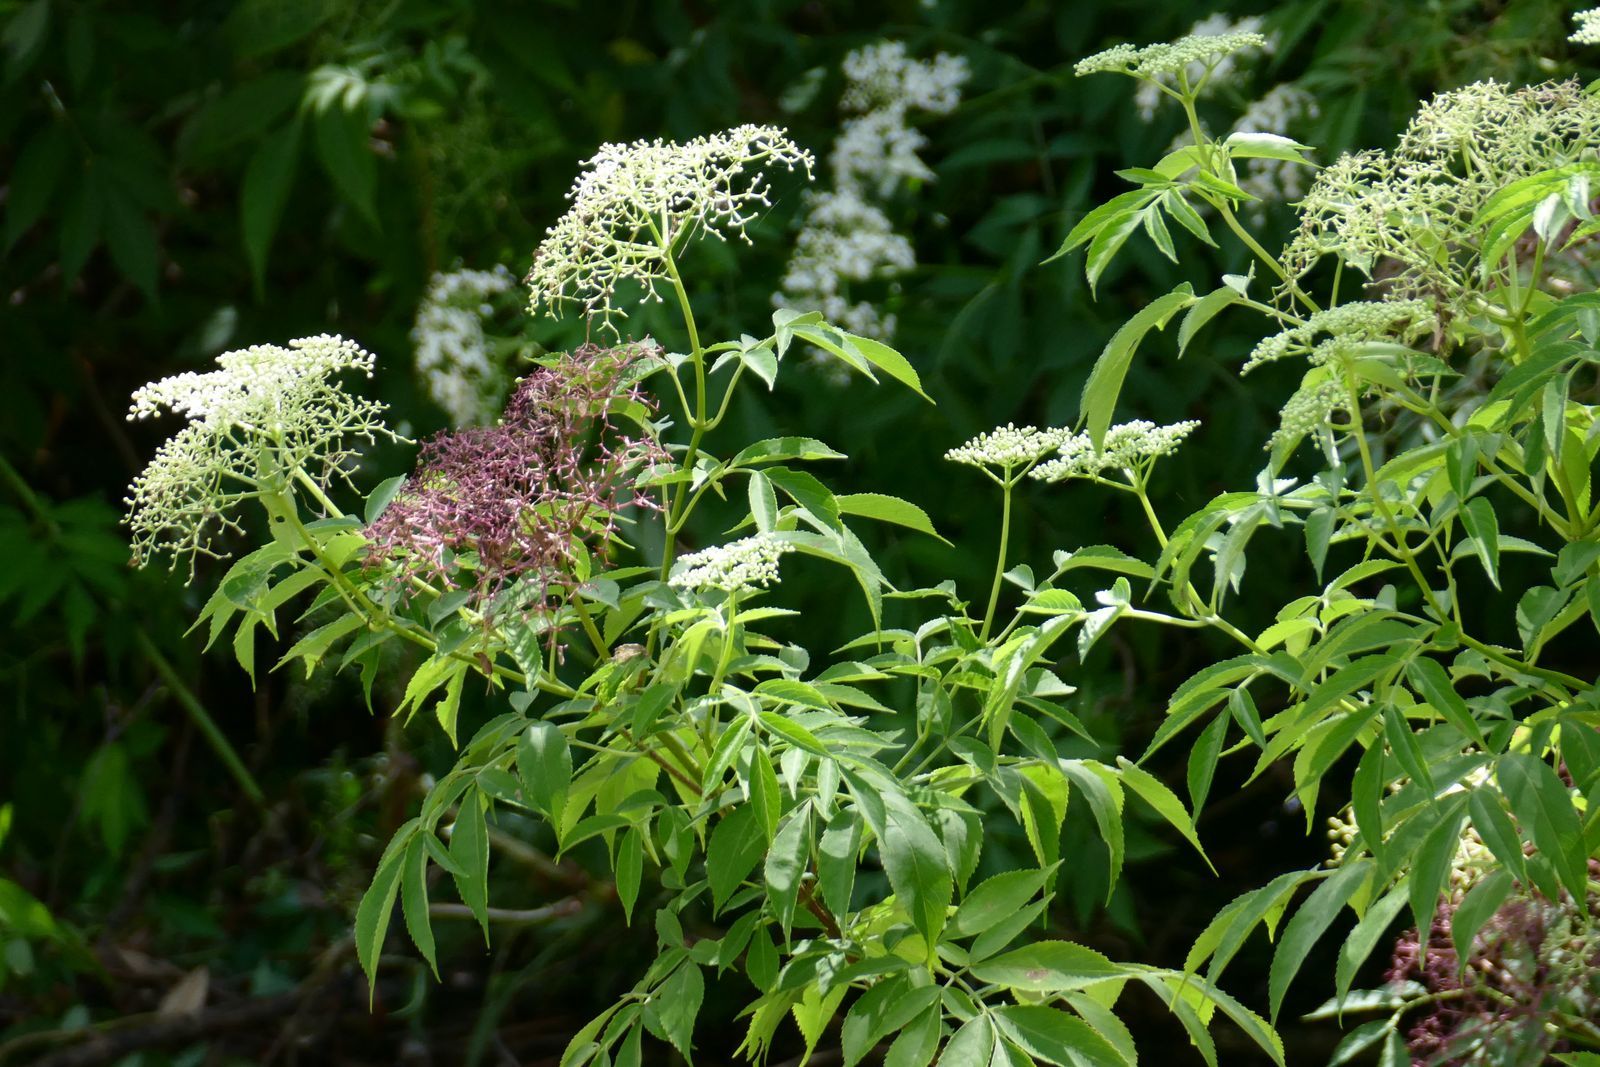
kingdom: Plantae
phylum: Tracheophyta
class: Magnoliopsida
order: Dipsacales
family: Viburnaceae
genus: Sambucus
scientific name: Sambucus nigra
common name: Elder
